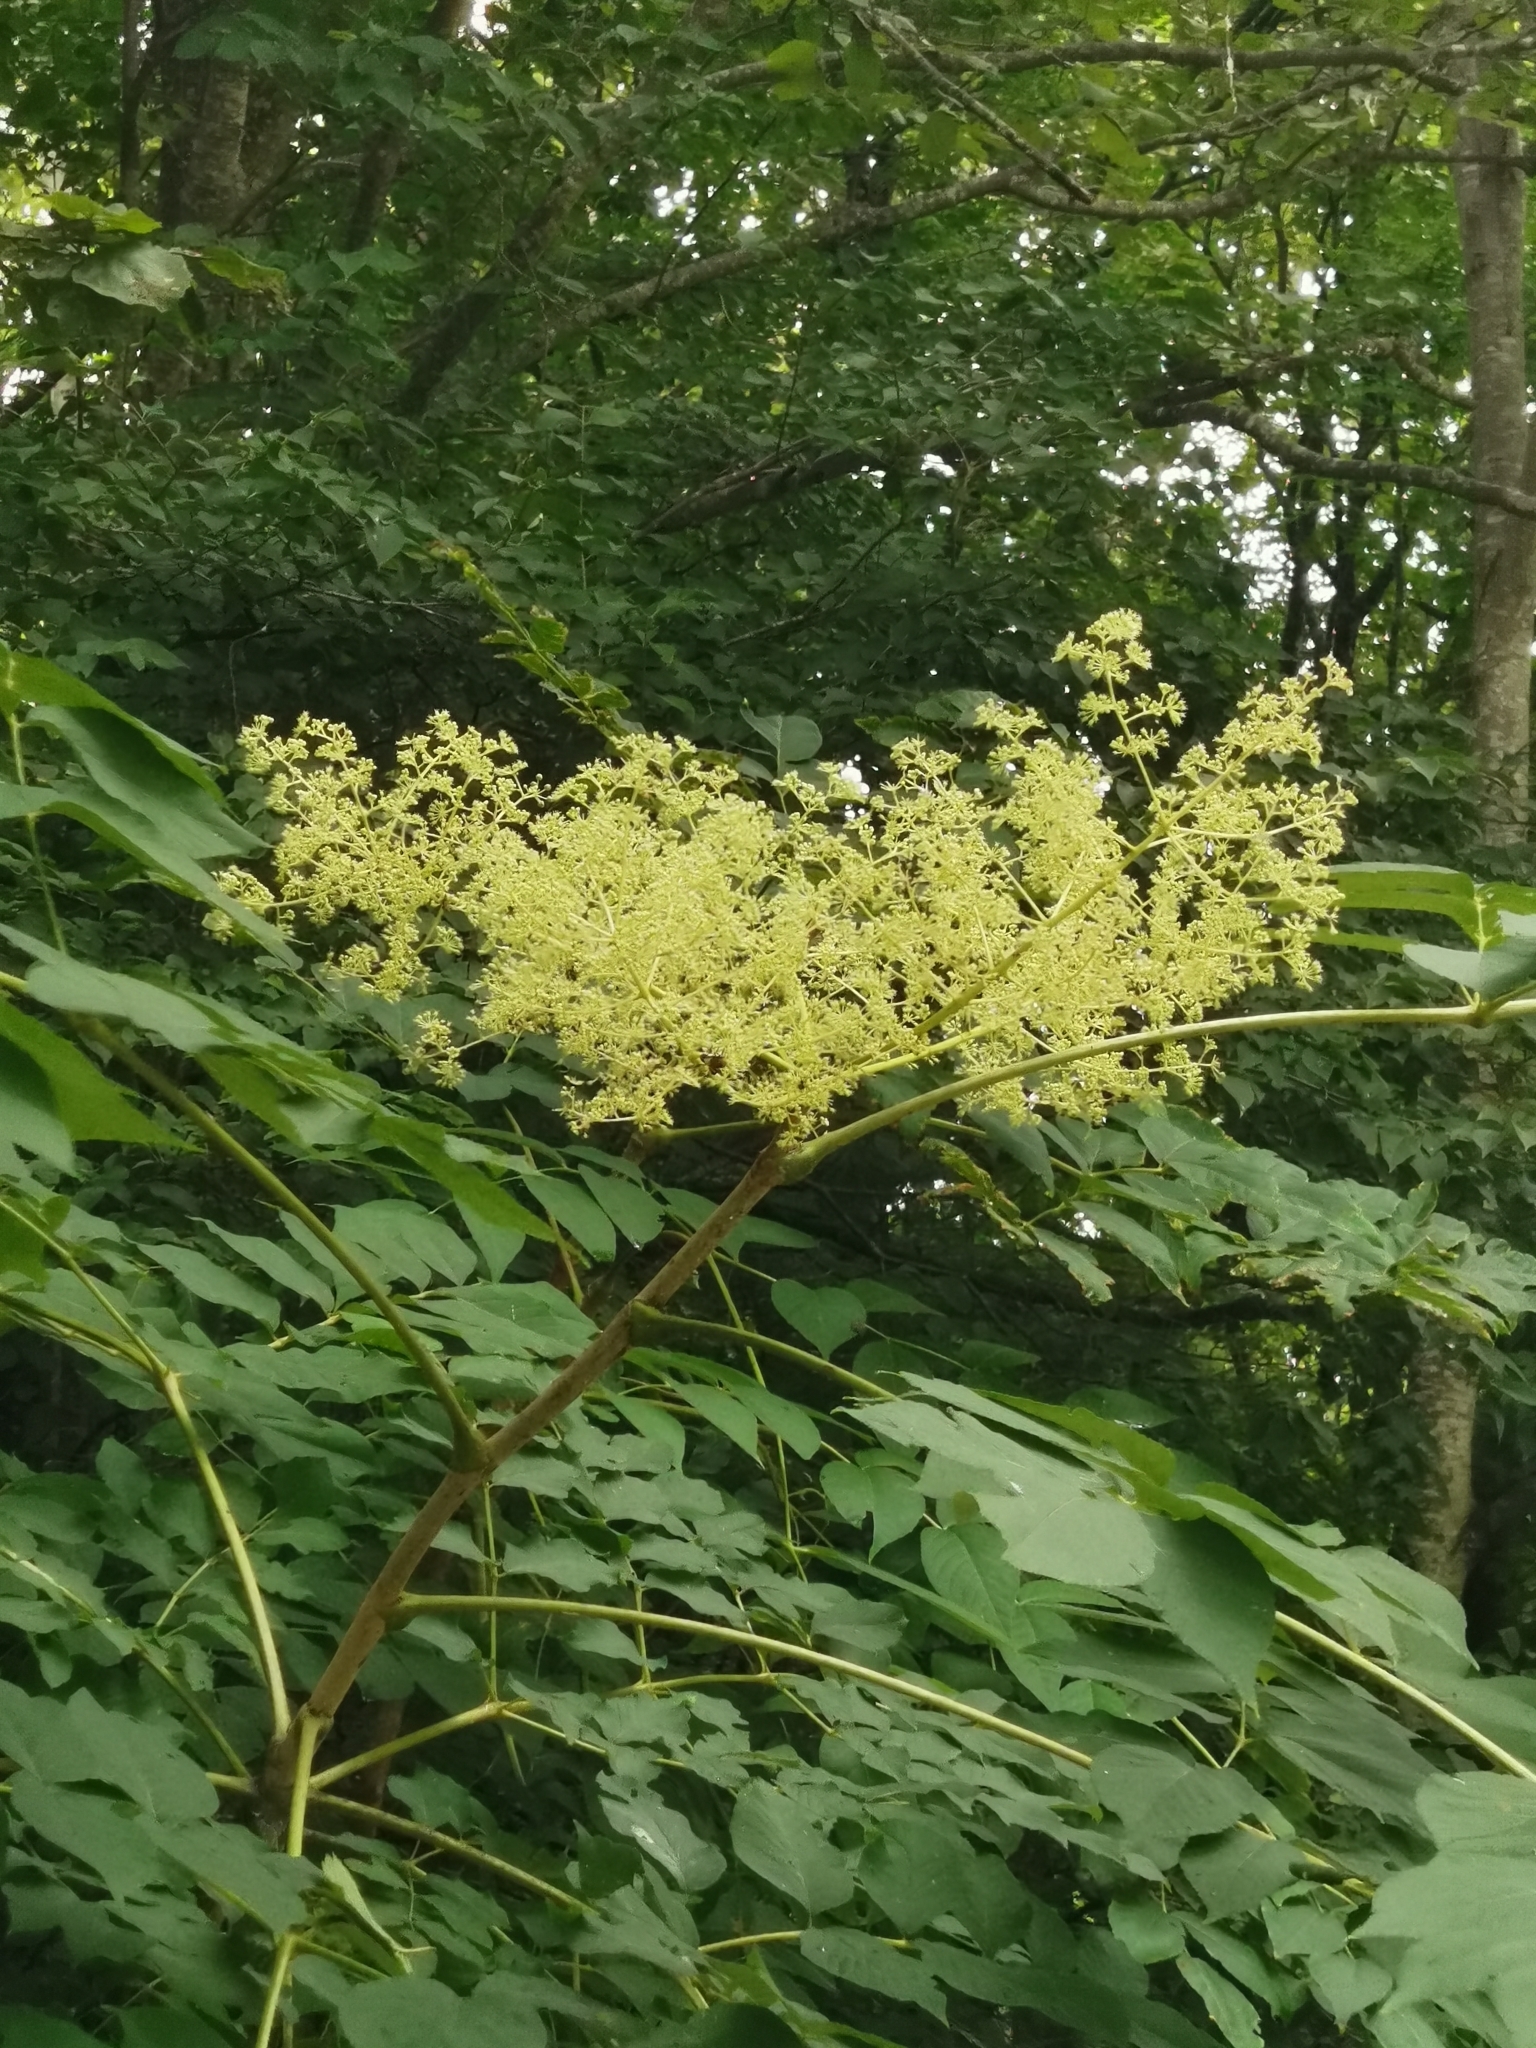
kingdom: Plantae
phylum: Tracheophyta
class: Magnoliopsida
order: Apiales
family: Araliaceae
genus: Aralia
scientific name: Aralia elata
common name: Japanese angelica-tree
